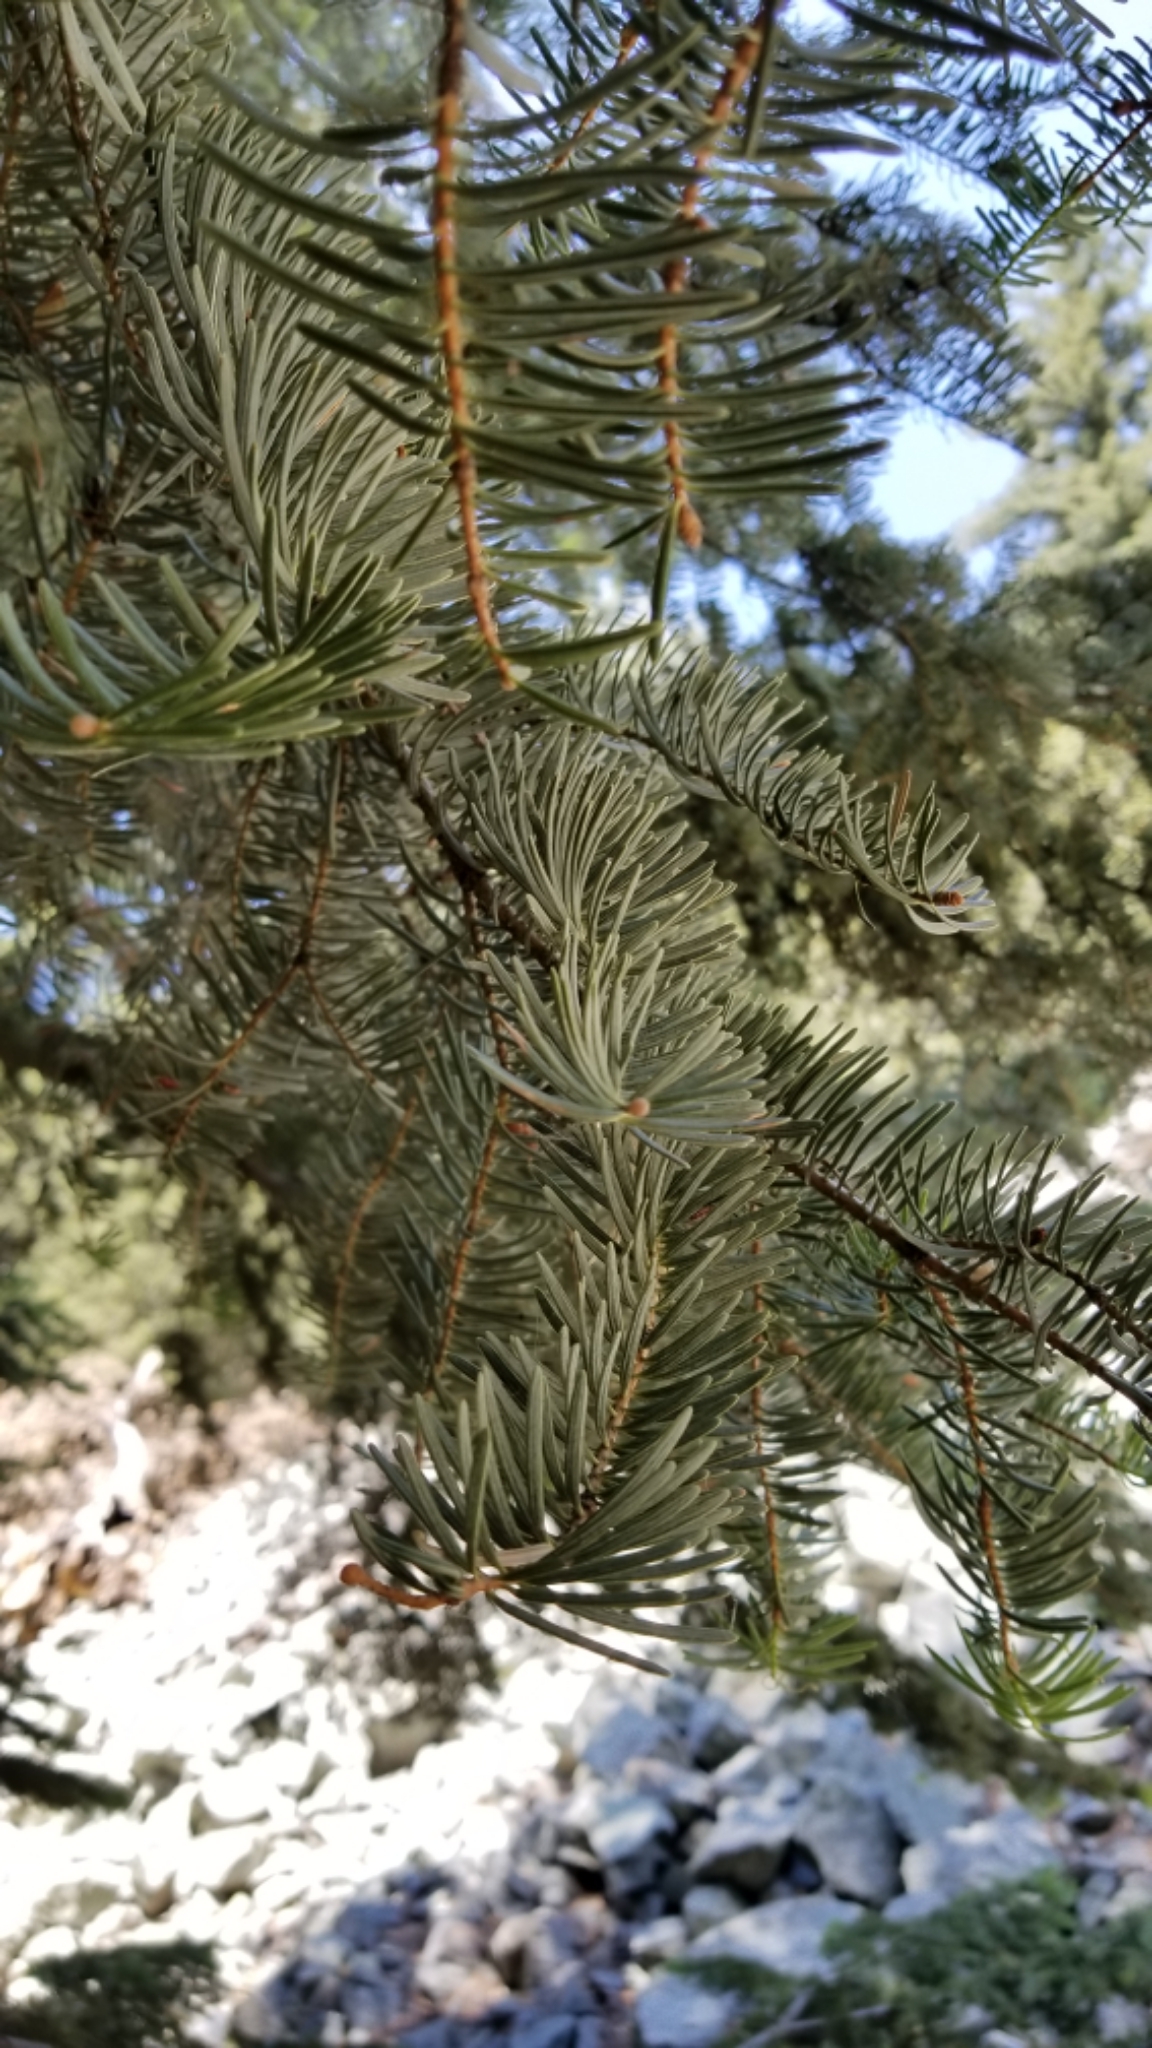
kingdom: Plantae
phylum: Tracheophyta
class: Pinopsida
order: Pinales
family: Pinaceae
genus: Abies
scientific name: Abies concolor
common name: Colorado fir
